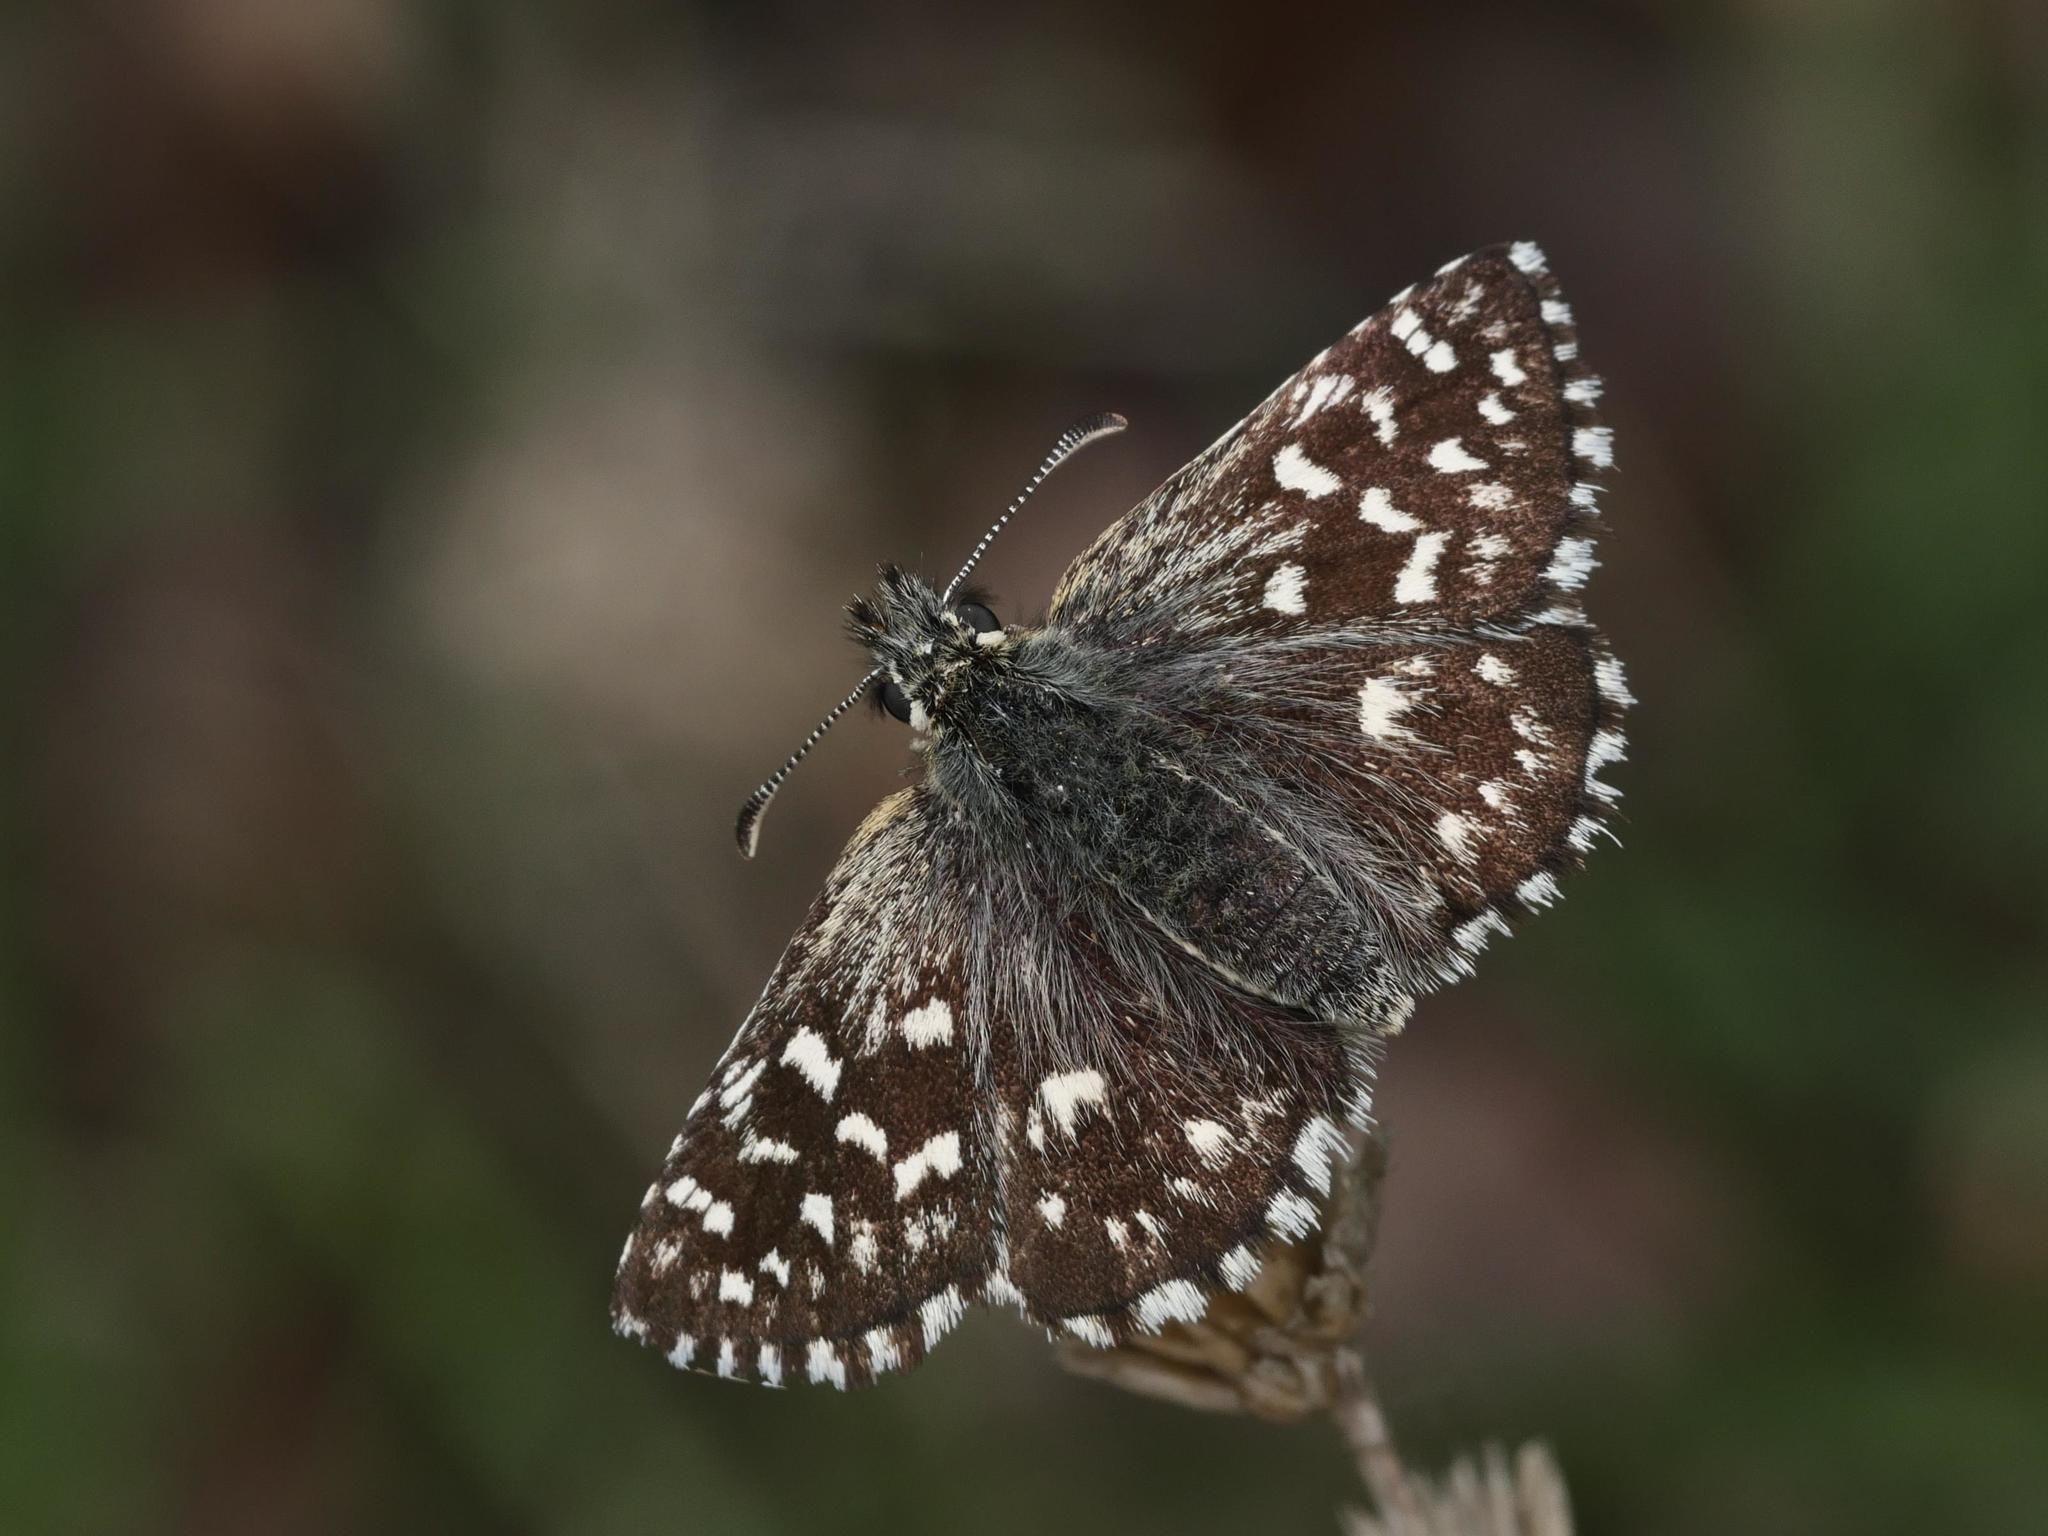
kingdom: Animalia
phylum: Arthropoda
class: Insecta
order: Lepidoptera
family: Hesperiidae
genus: Pyrgus
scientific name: Pyrgus malvae
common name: Grizzled skipper
